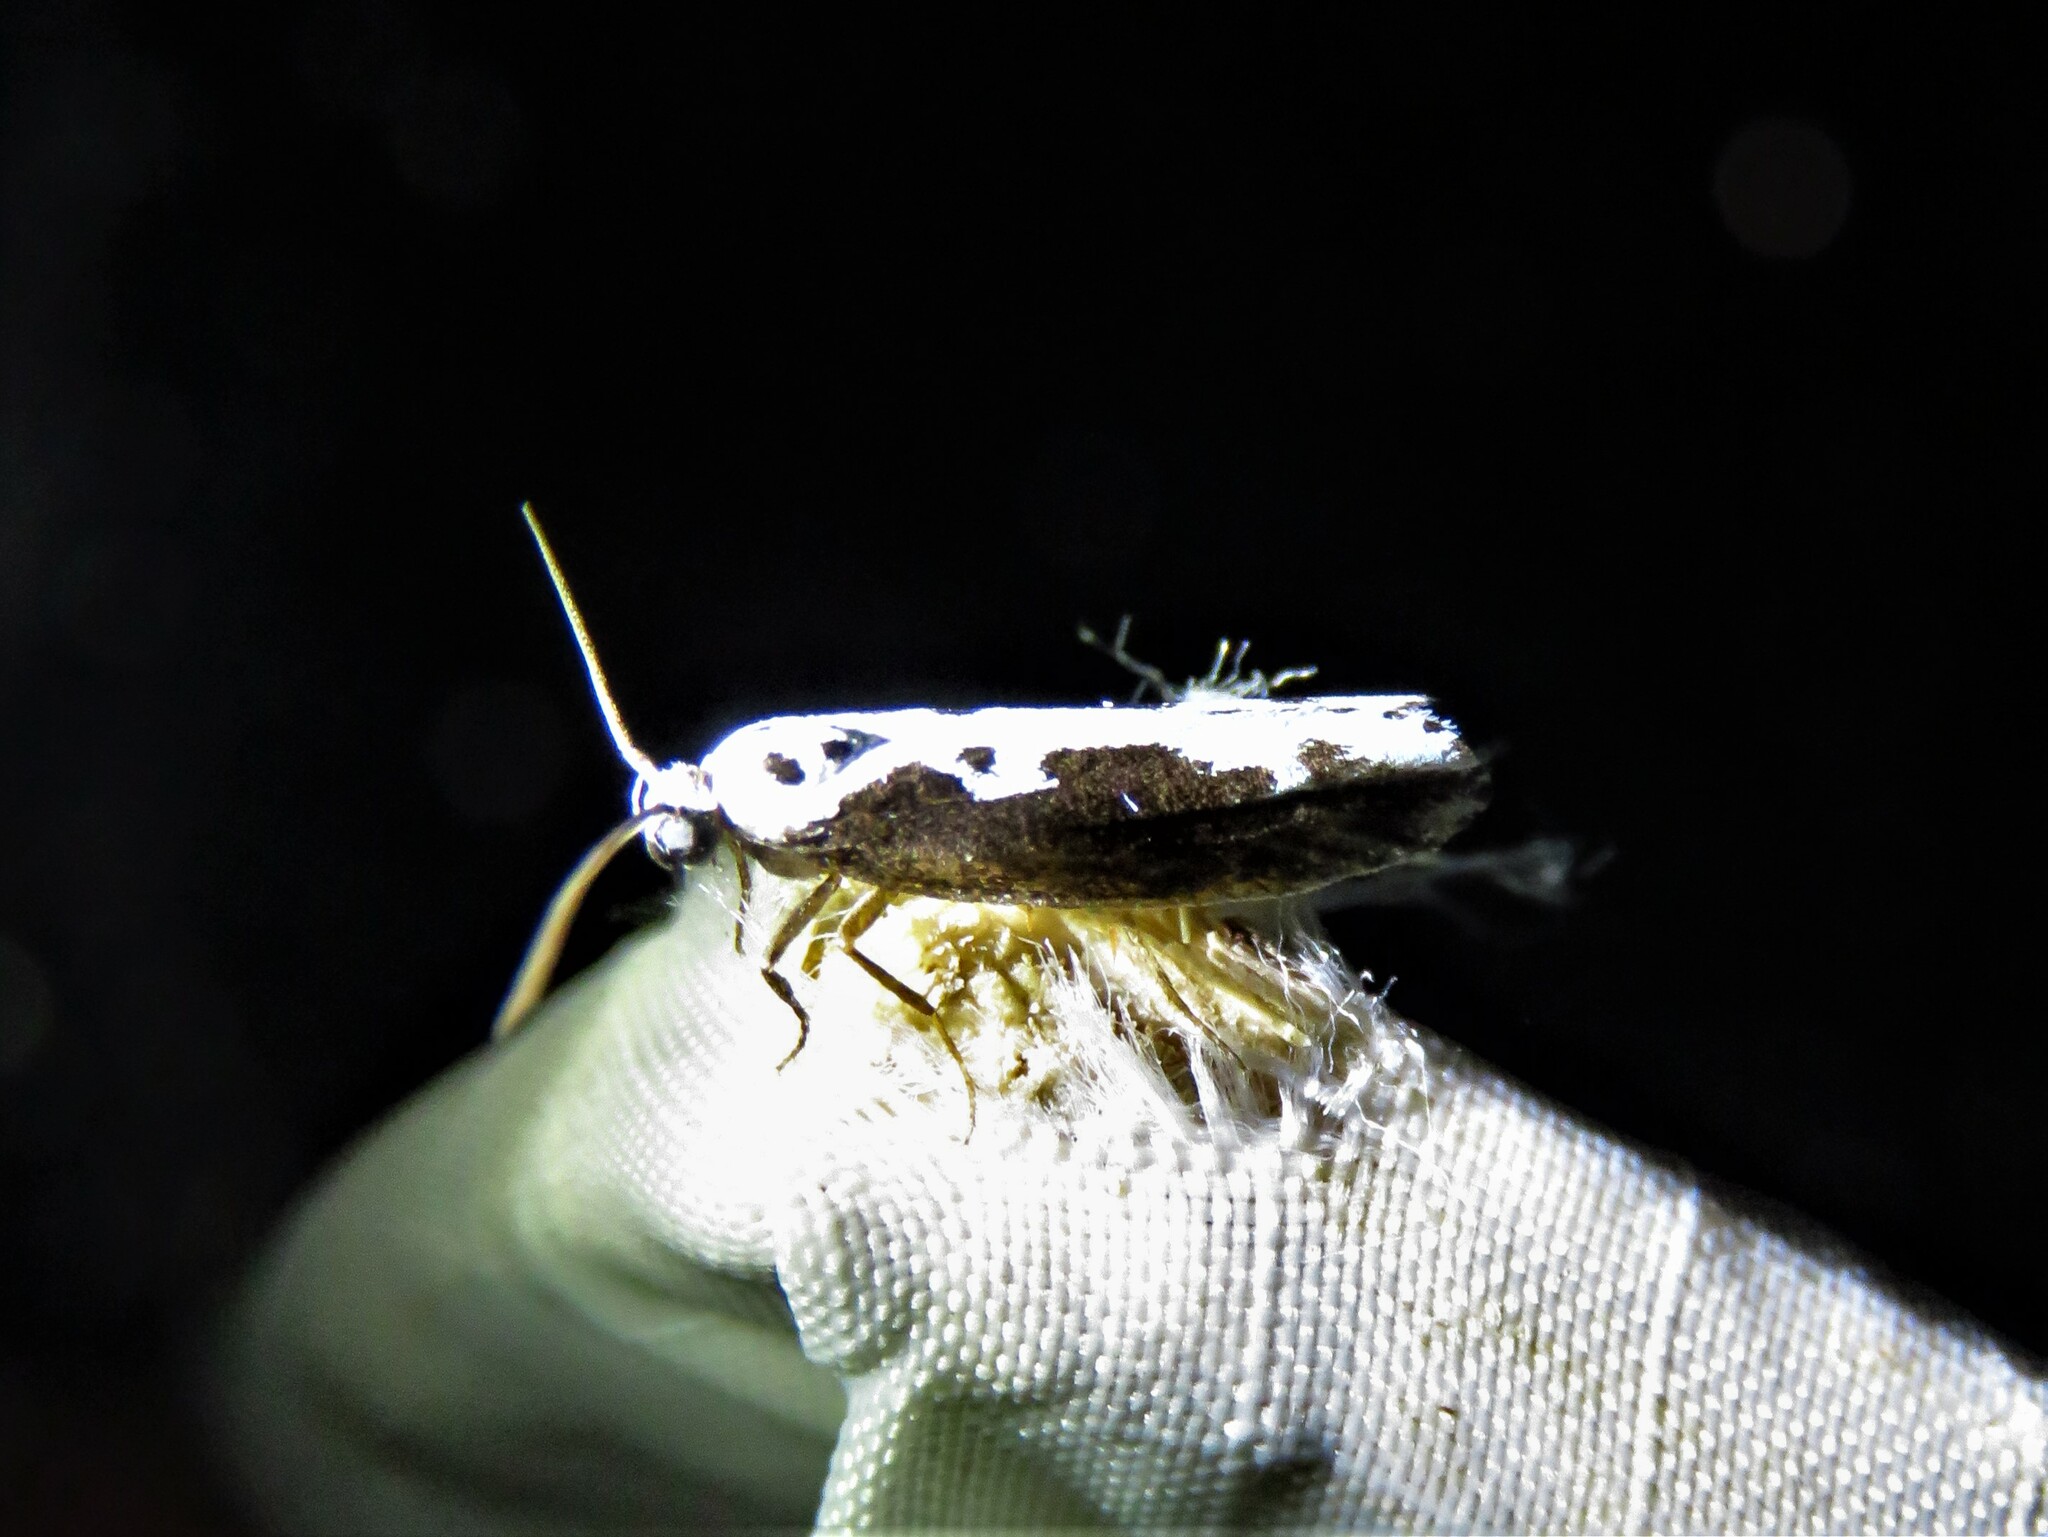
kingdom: Animalia
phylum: Arthropoda
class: Insecta
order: Lepidoptera
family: Ethmiidae
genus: Ethmia
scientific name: Ethmia semilugens
